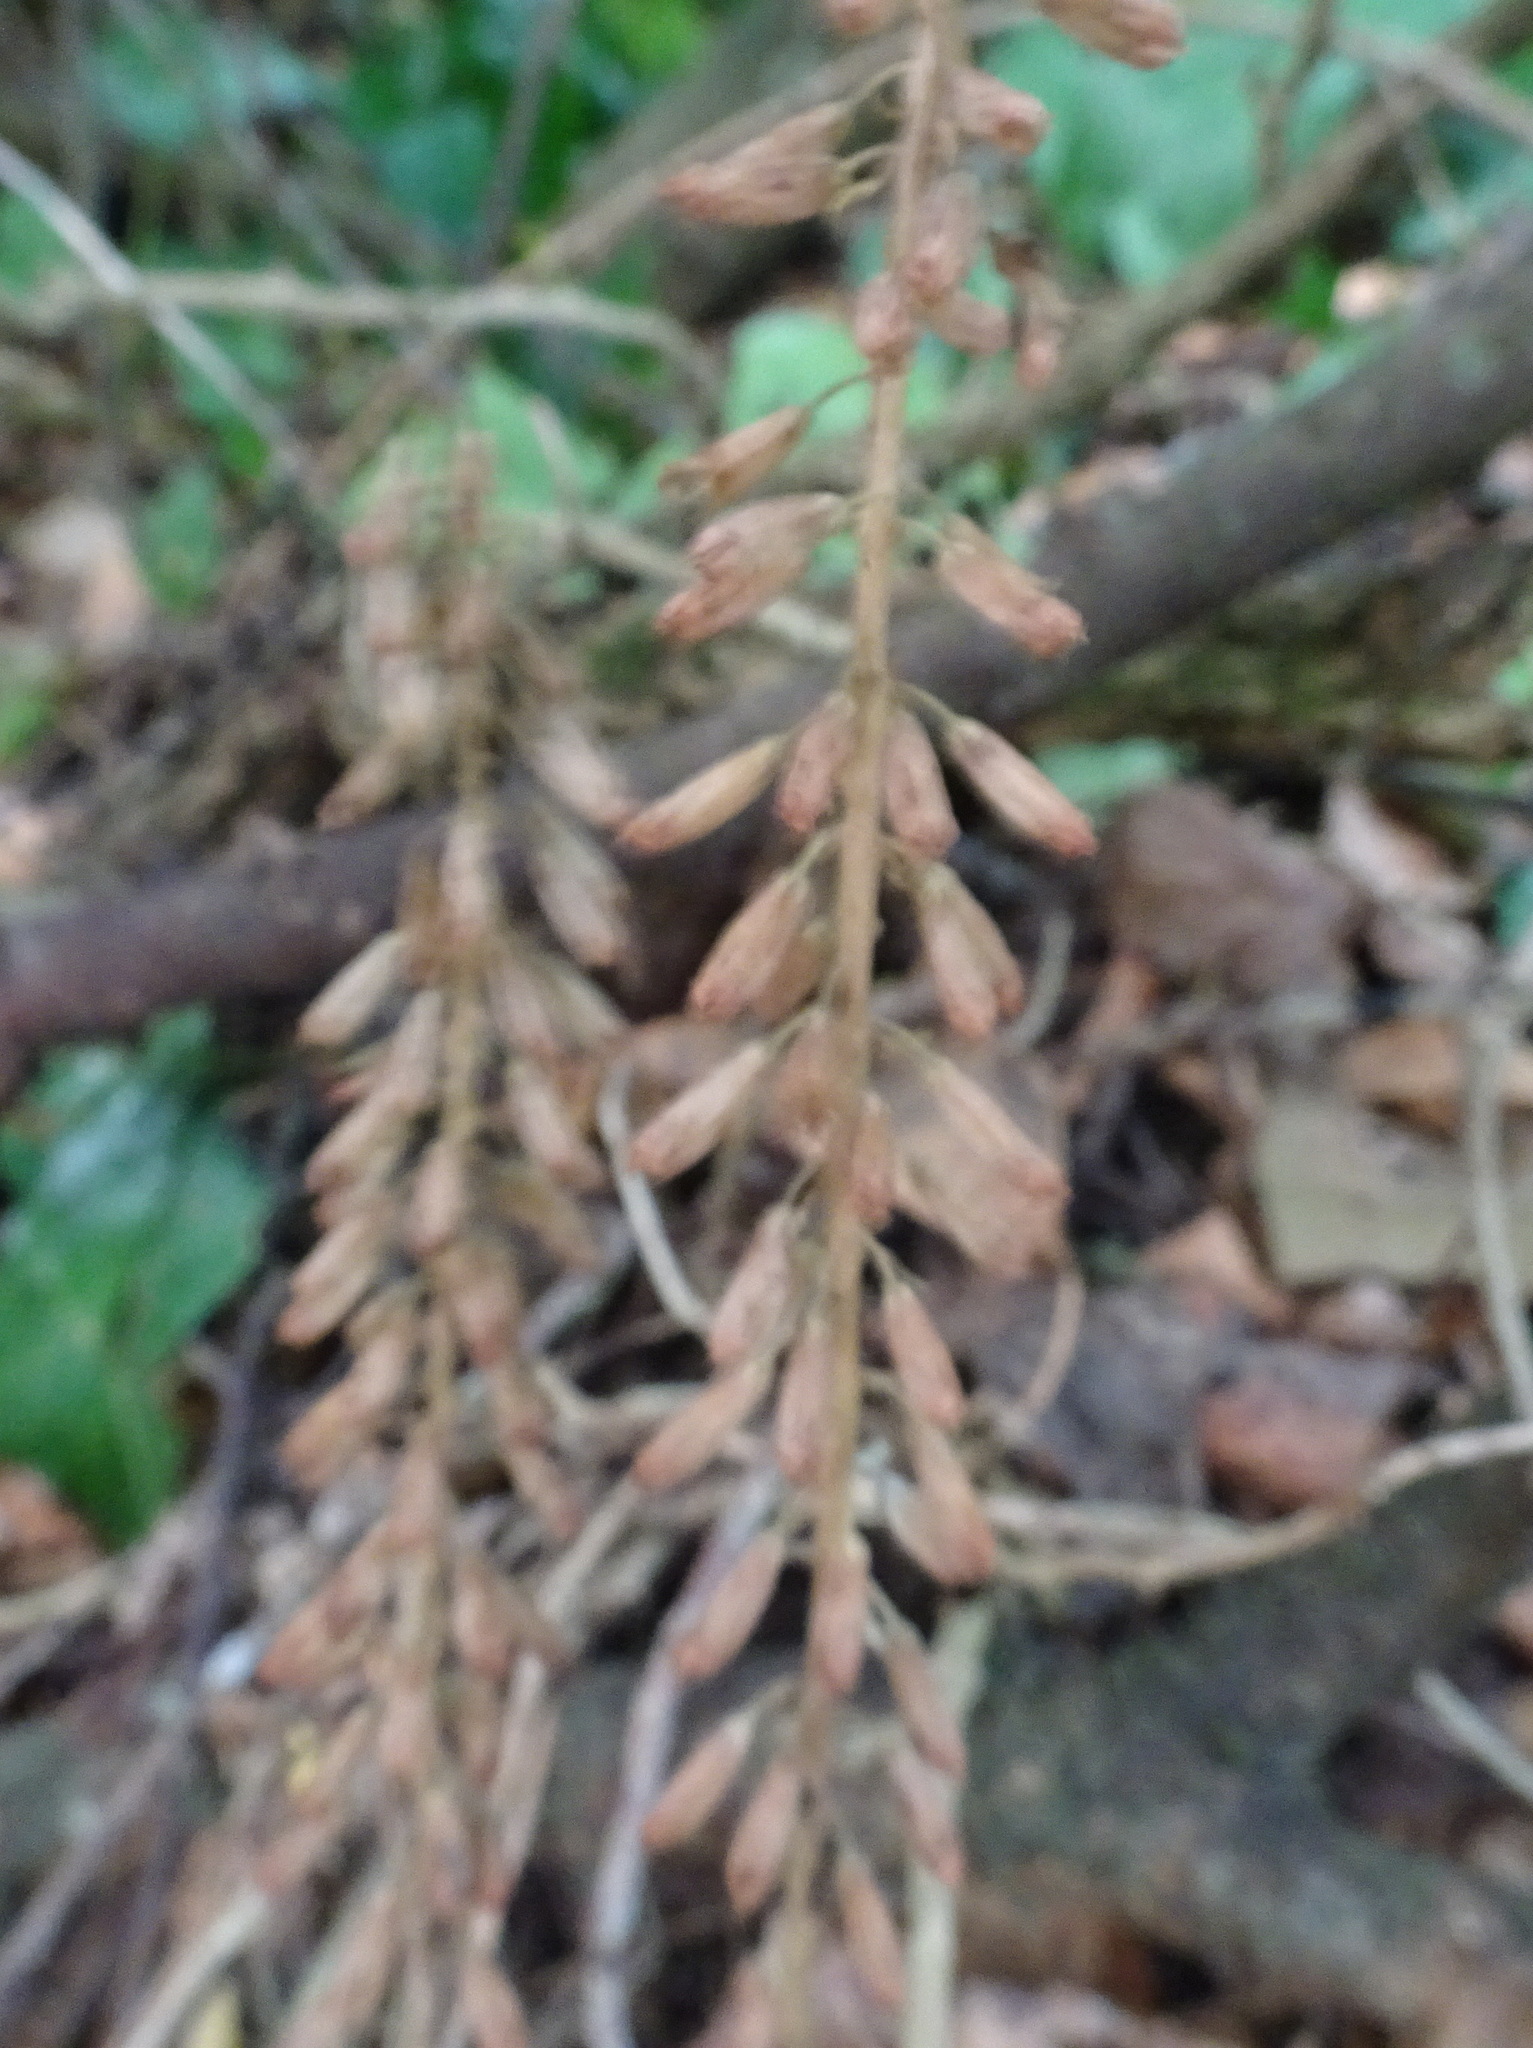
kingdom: Plantae
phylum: Tracheophyta
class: Magnoliopsida
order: Saxifragales
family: Crassulaceae
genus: Umbilicus
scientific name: Umbilicus rupestris
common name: Navelwort
